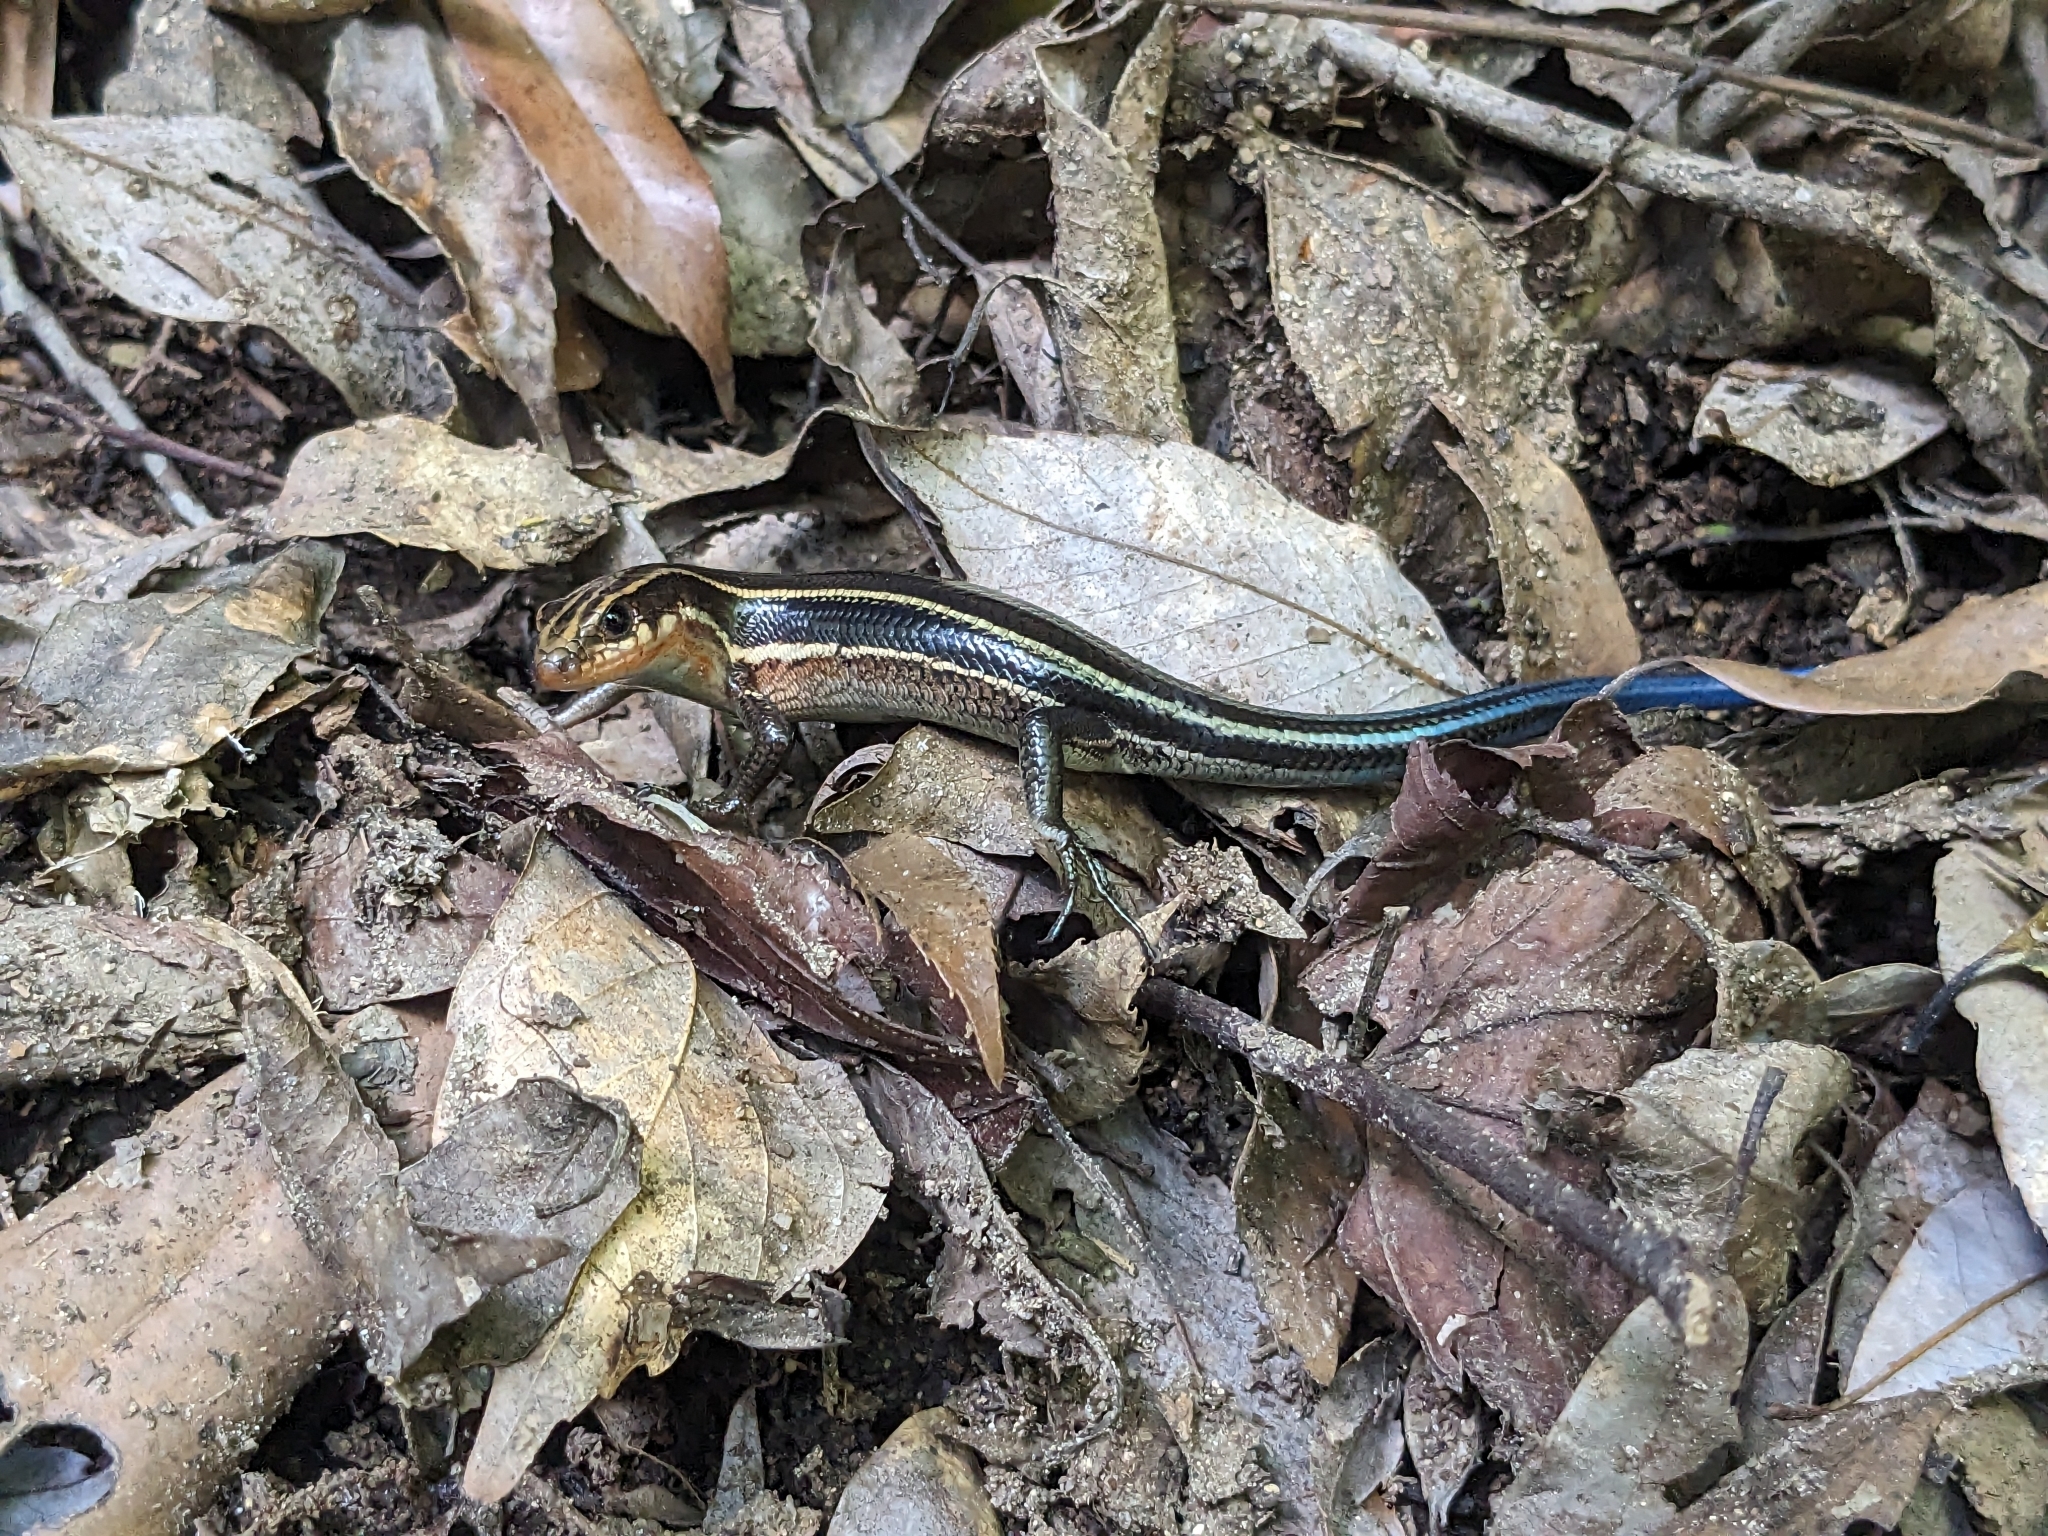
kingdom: Animalia
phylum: Chordata
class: Squamata
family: Scincidae
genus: Plestiodon
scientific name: Plestiodon japonicus
